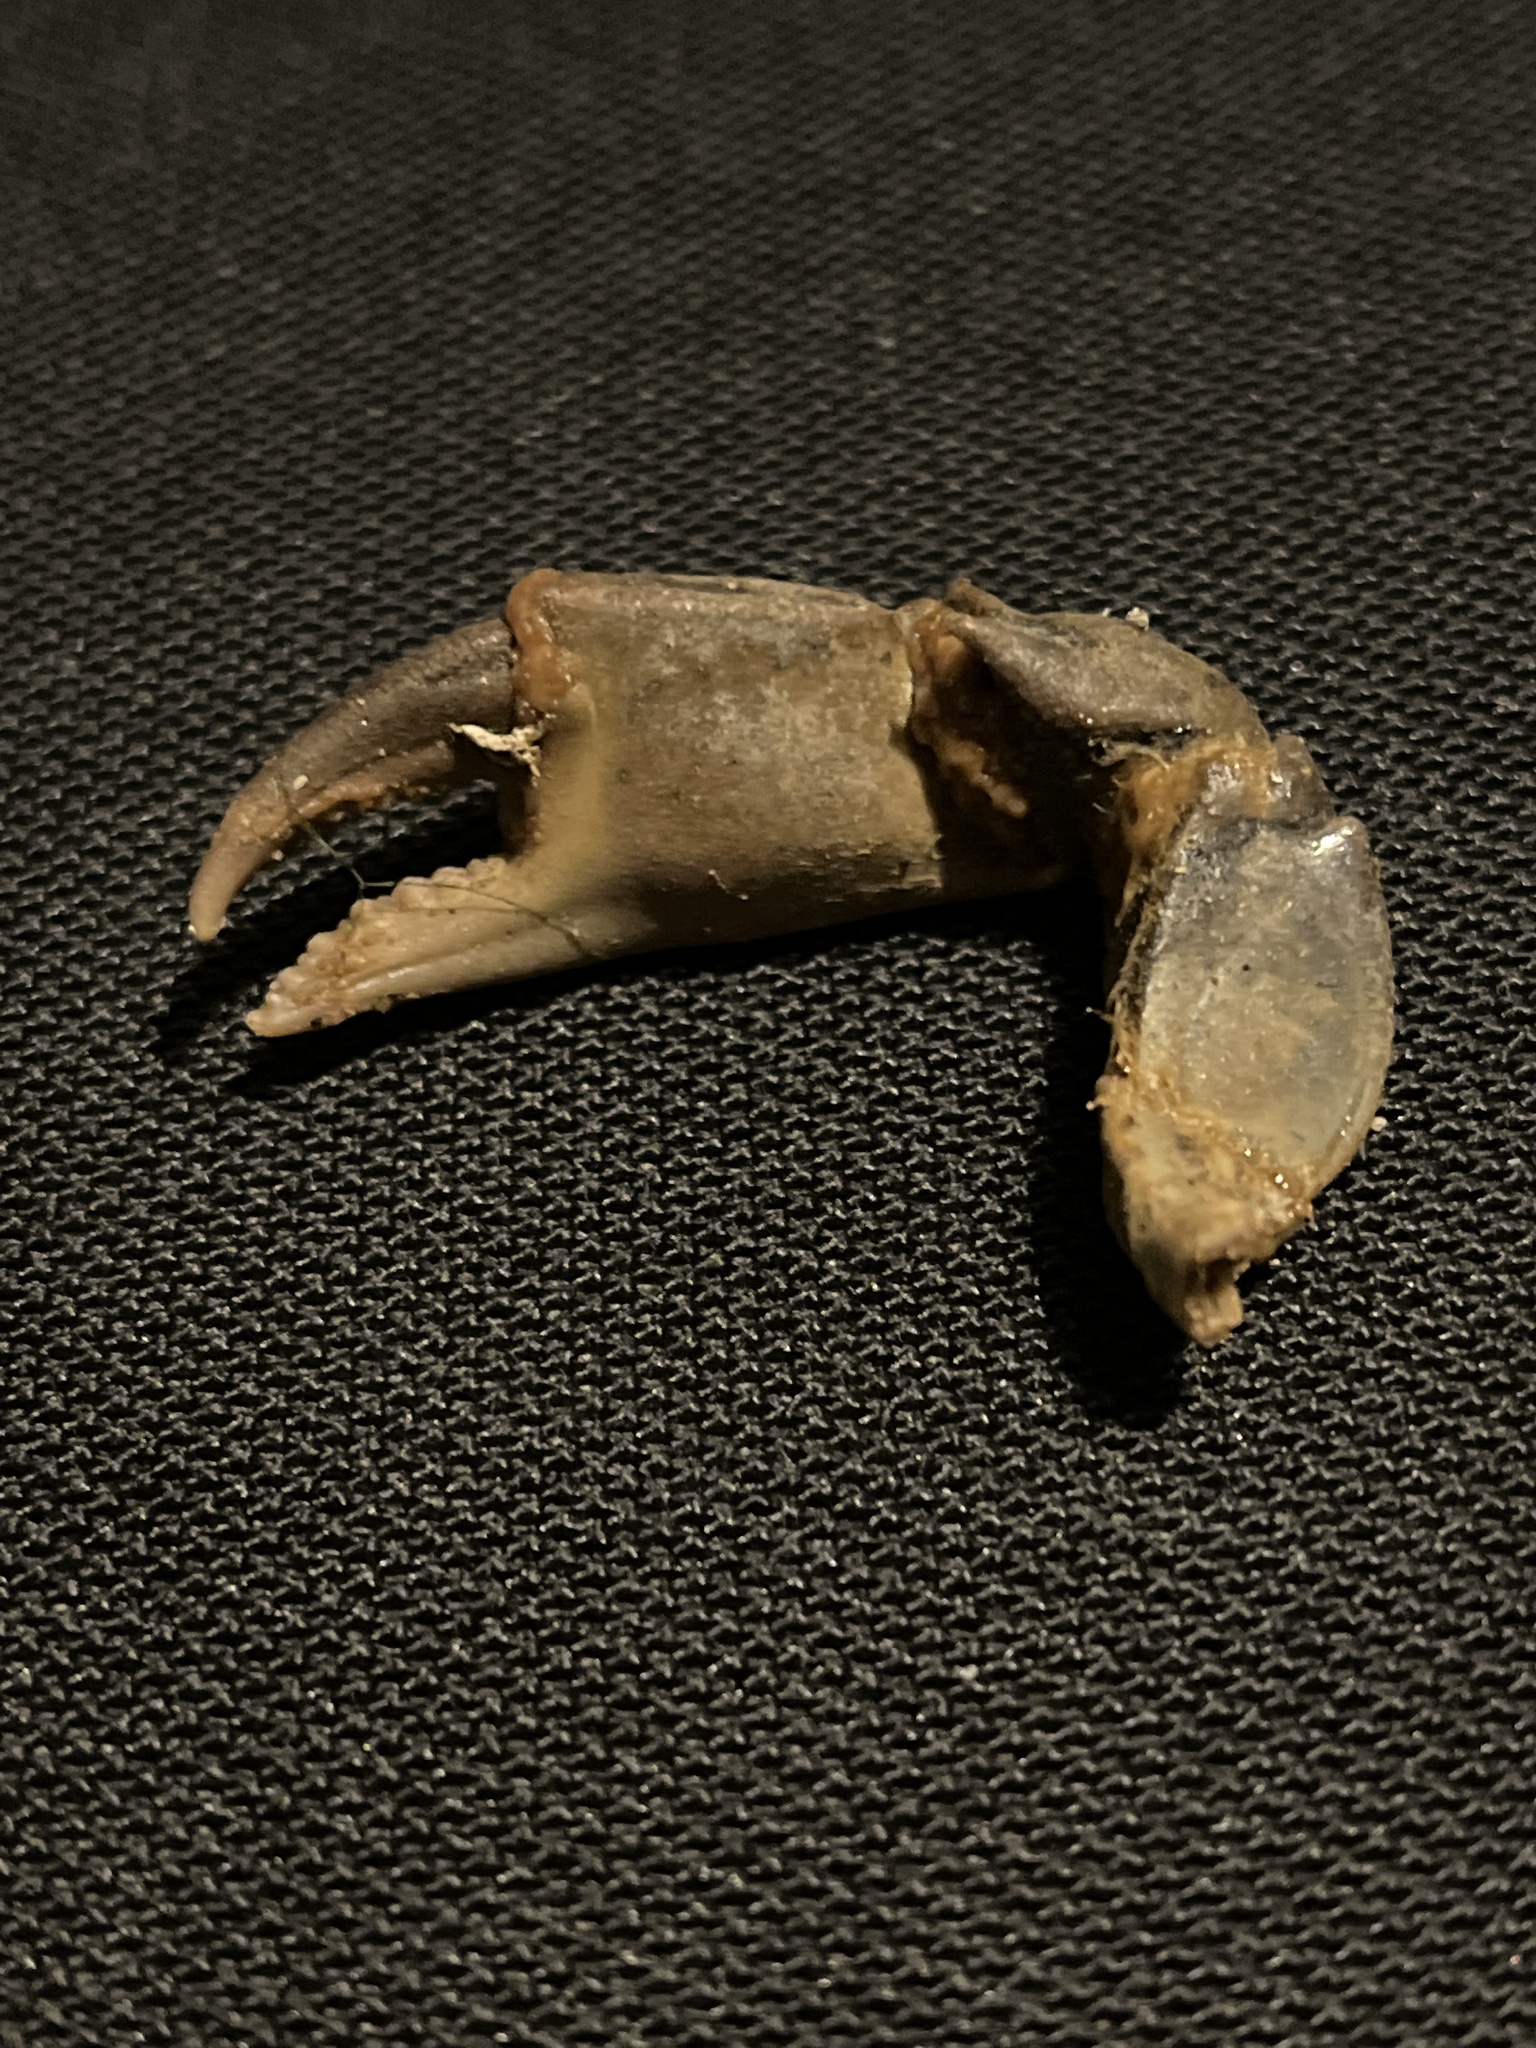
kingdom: Animalia
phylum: Arthropoda
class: Malacostraca
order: Decapoda
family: Carcinidae
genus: Carcinus
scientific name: Carcinus maenas
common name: European green crab
